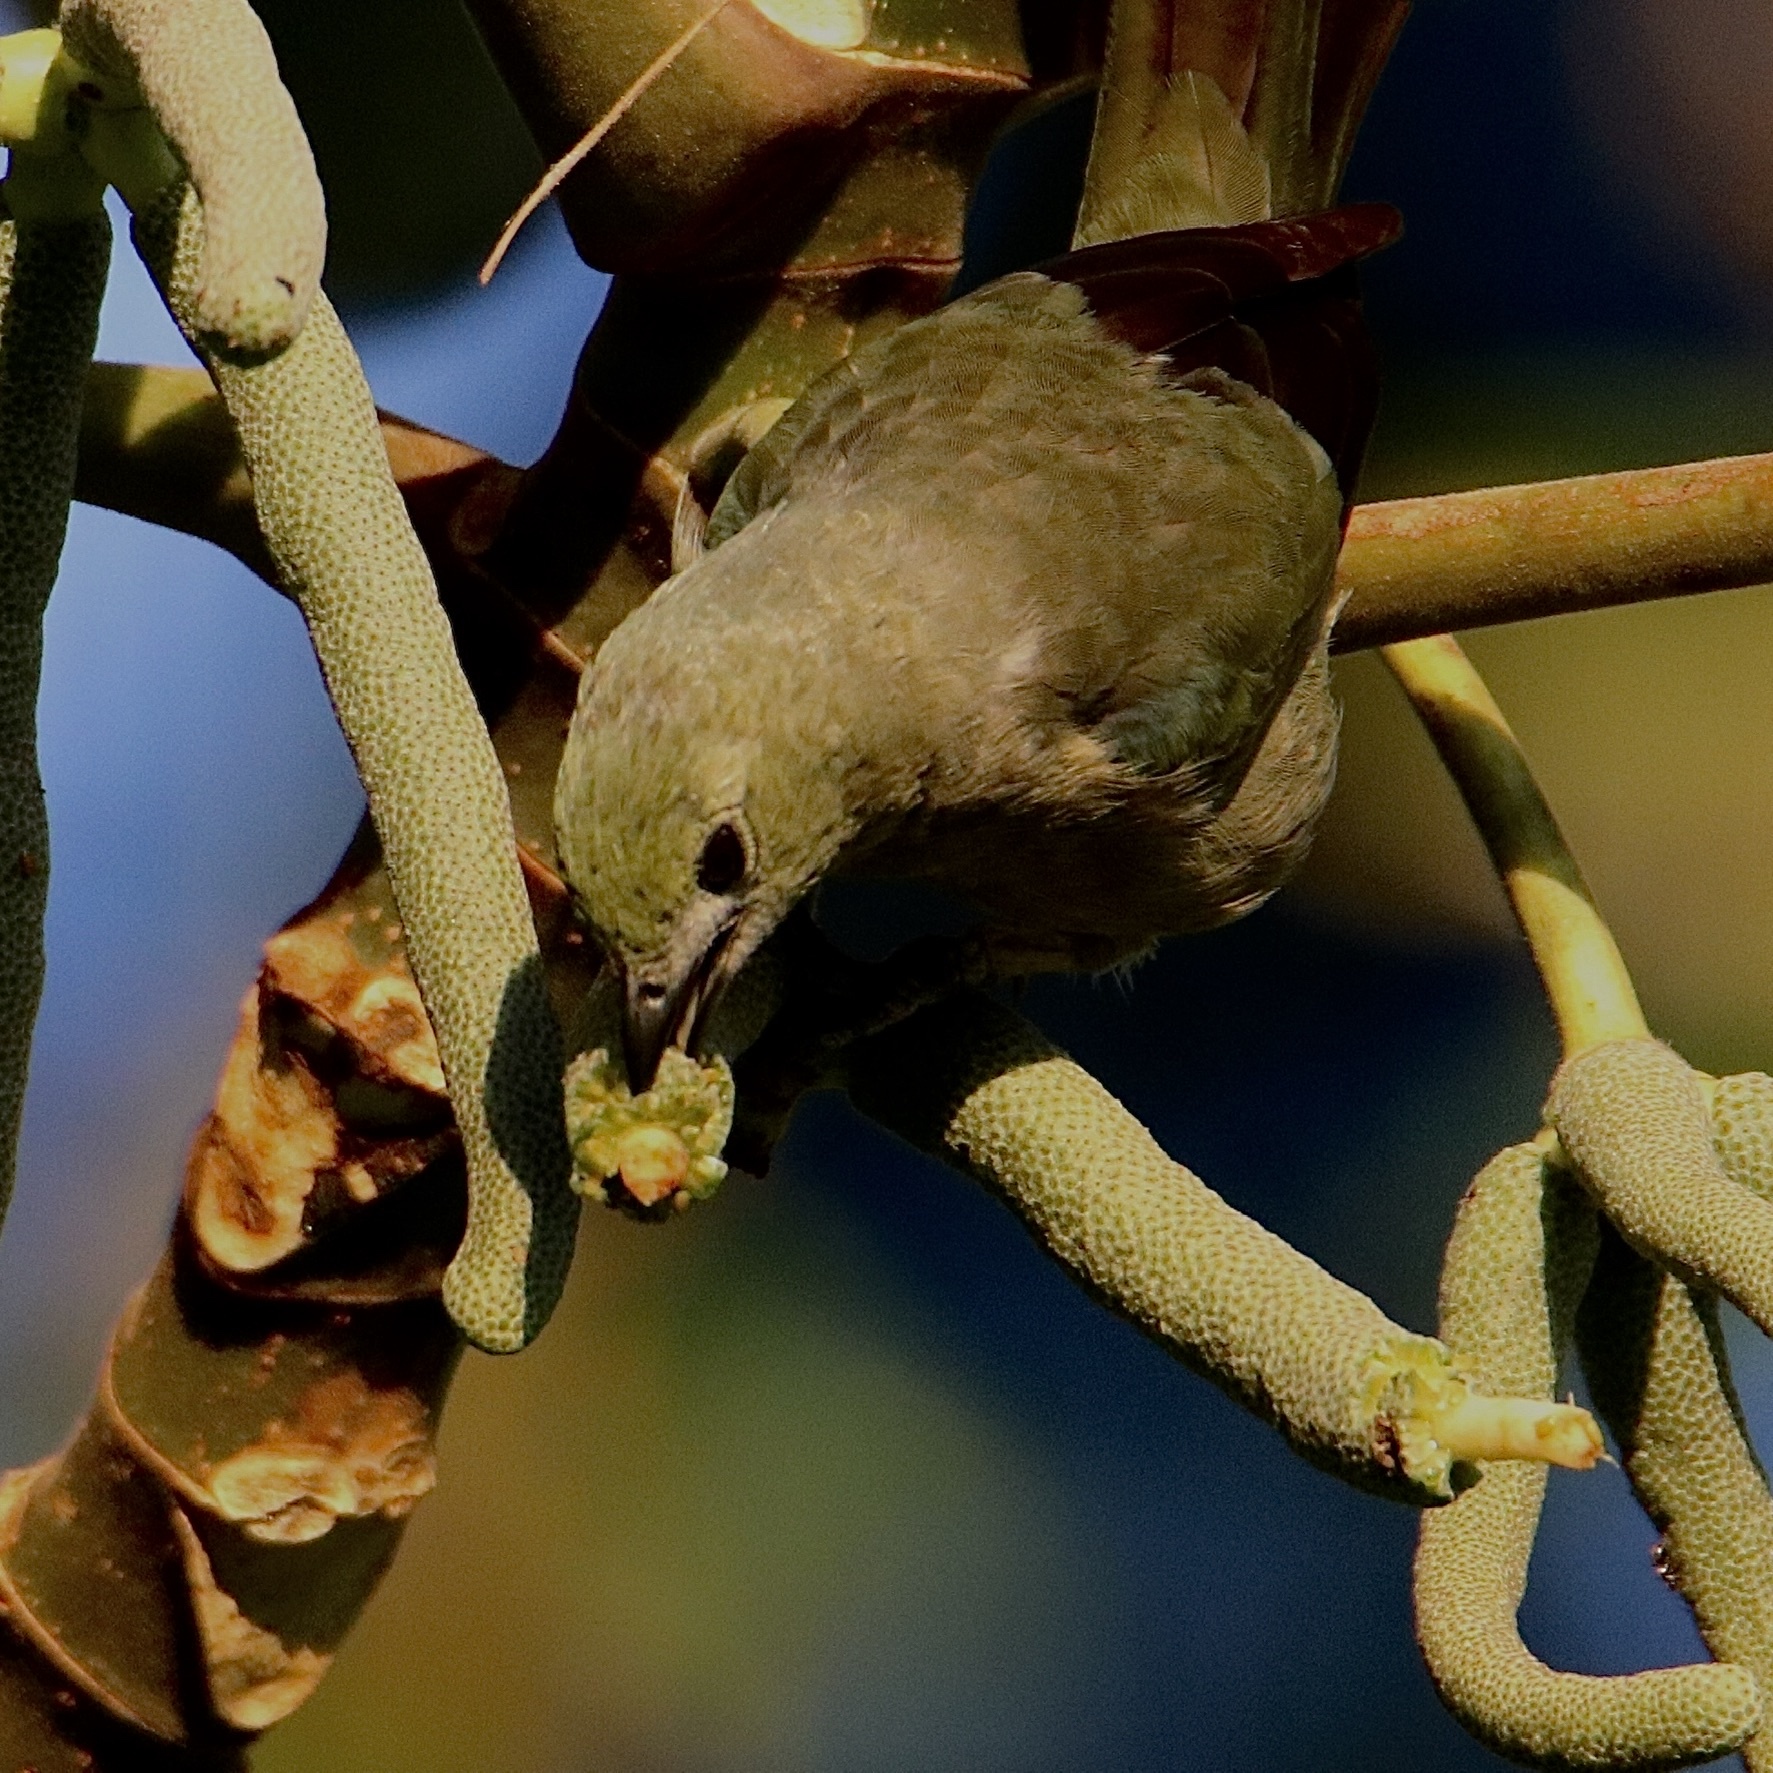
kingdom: Animalia
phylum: Chordata
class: Aves
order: Passeriformes
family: Thraupidae
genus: Thraupis
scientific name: Thraupis palmarum
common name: Palm tanager
